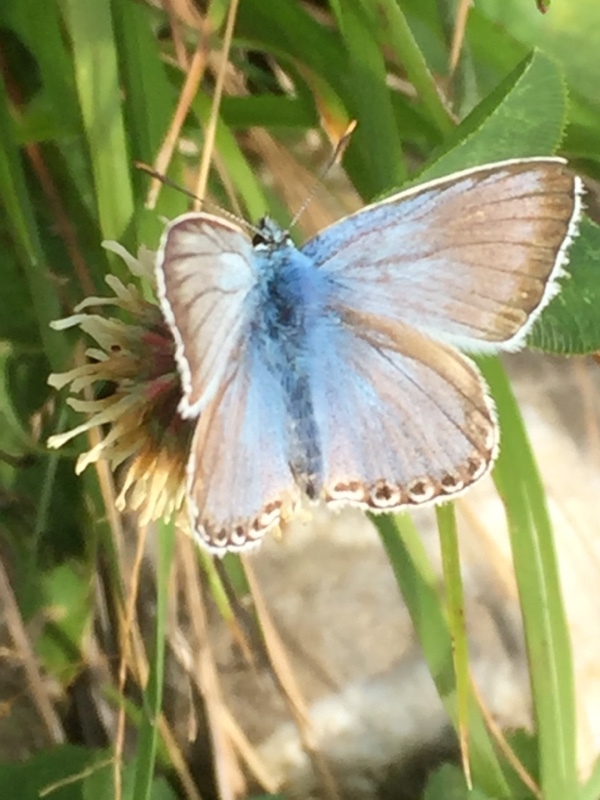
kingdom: Animalia
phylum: Arthropoda
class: Insecta
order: Lepidoptera
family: Lycaenidae
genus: Lysandra
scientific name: Lysandra coridon
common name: Chalkhill blue
